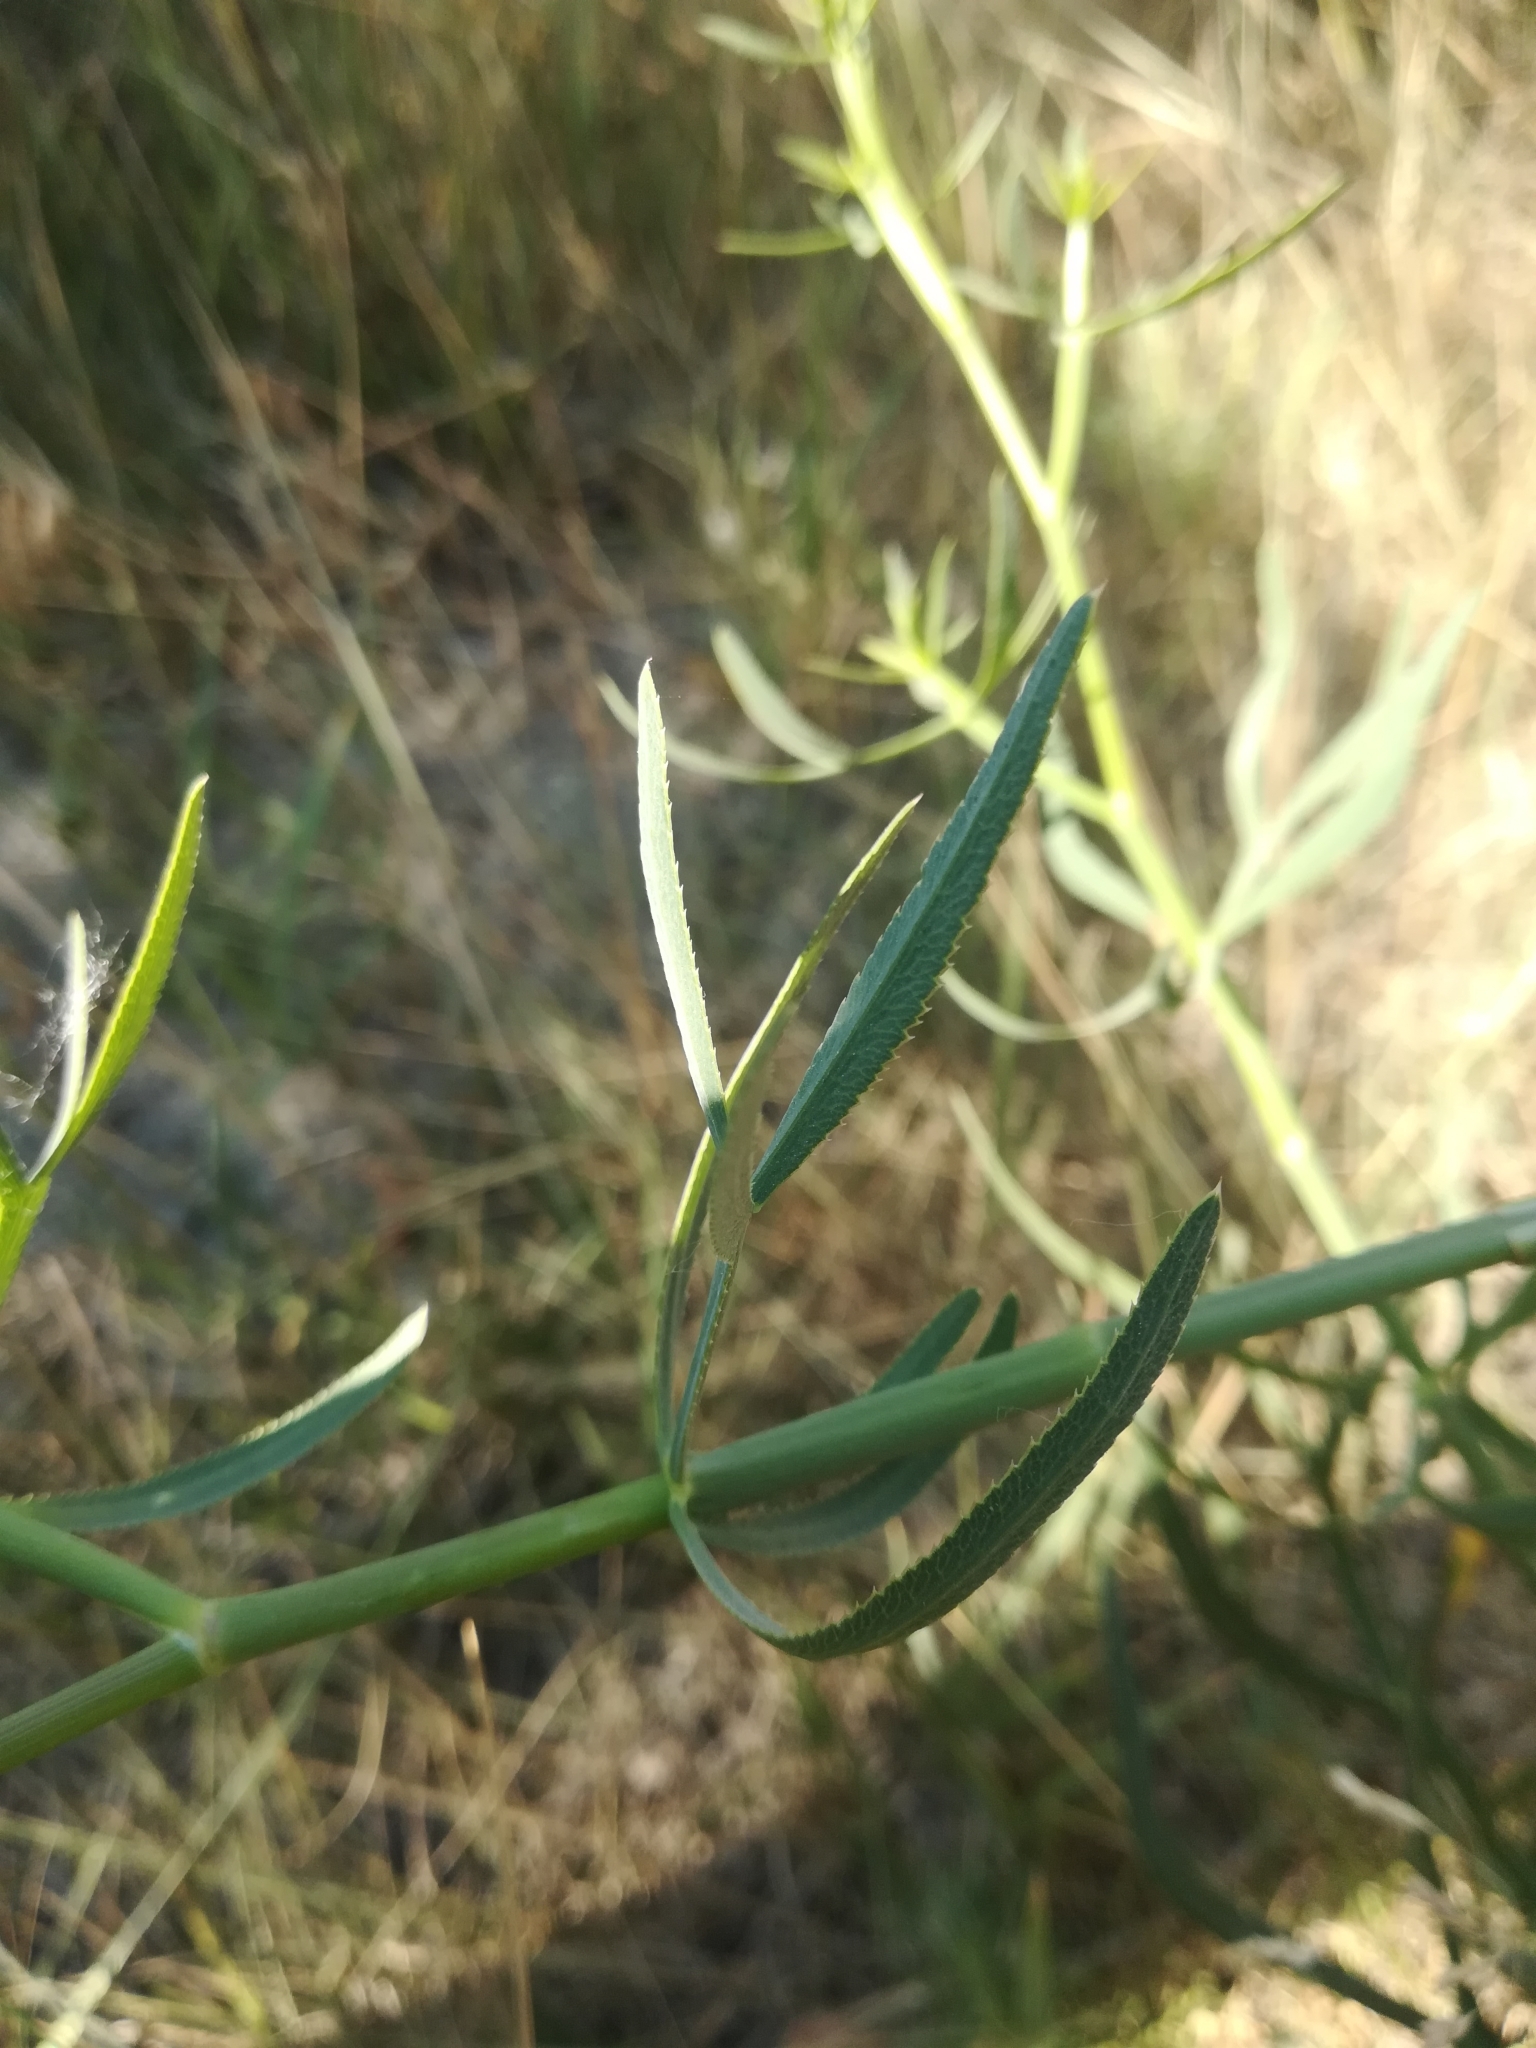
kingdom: Plantae
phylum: Tracheophyta
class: Magnoliopsida
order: Apiales
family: Apiaceae
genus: Falcaria
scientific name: Falcaria vulgaris
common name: Longleaf
